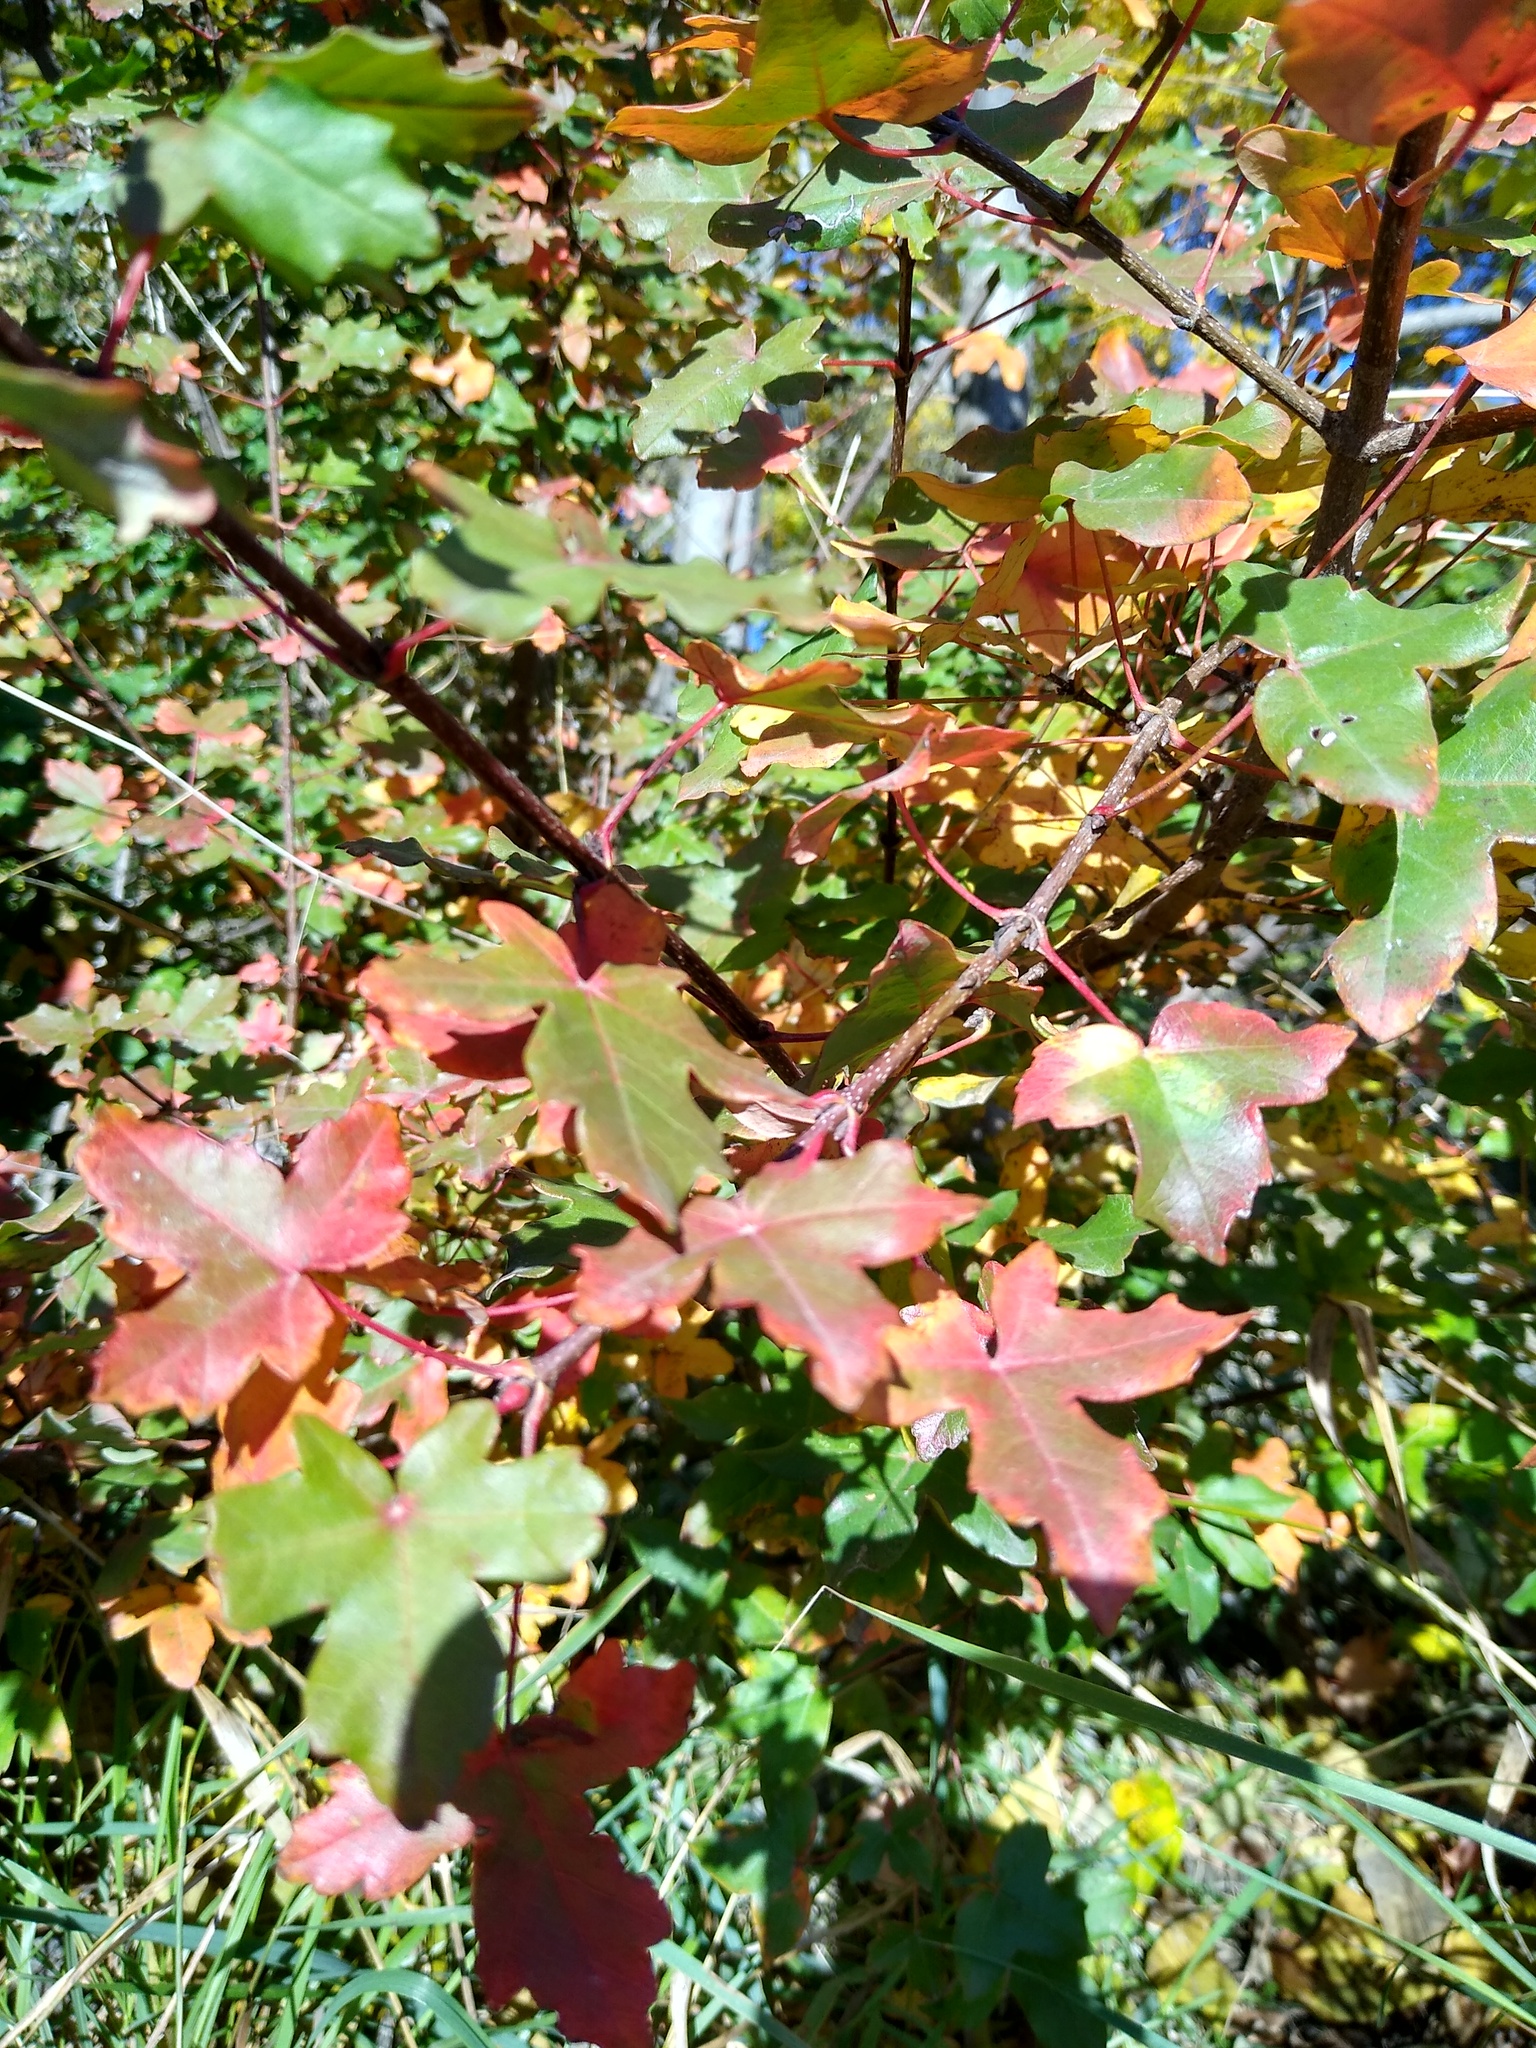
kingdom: Plantae
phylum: Tracheophyta
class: Magnoliopsida
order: Sapindales
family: Sapindaceae
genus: Acer
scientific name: Acer campestre
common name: Field maple
